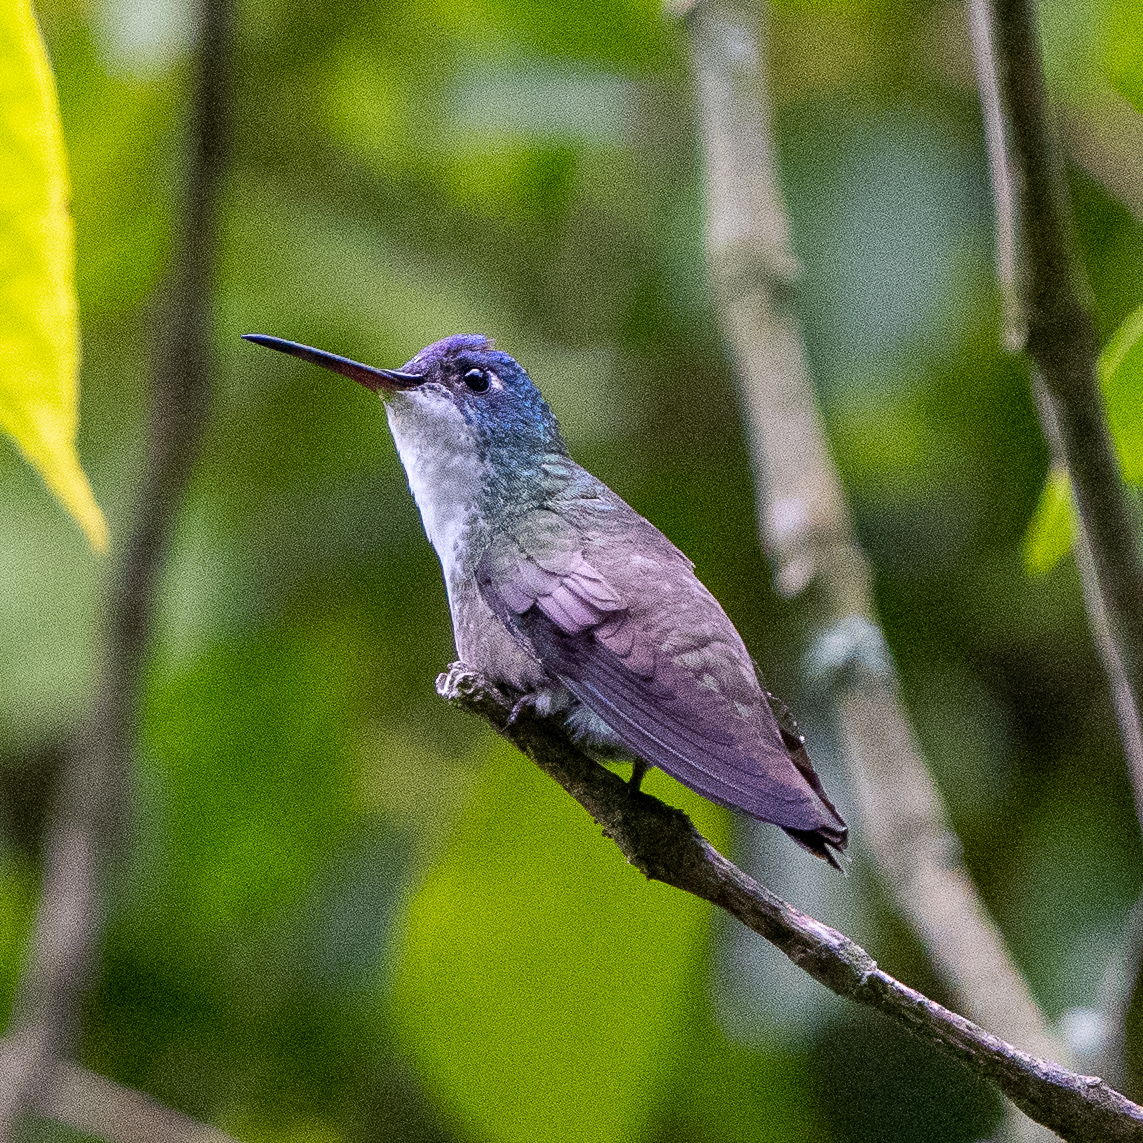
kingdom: Animalia
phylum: Chordata
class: Aves
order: Apodiformes
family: Trochilidae
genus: Saucerottia
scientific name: Saucerottia cyanocephala
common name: Azure-crowned hummingbird
